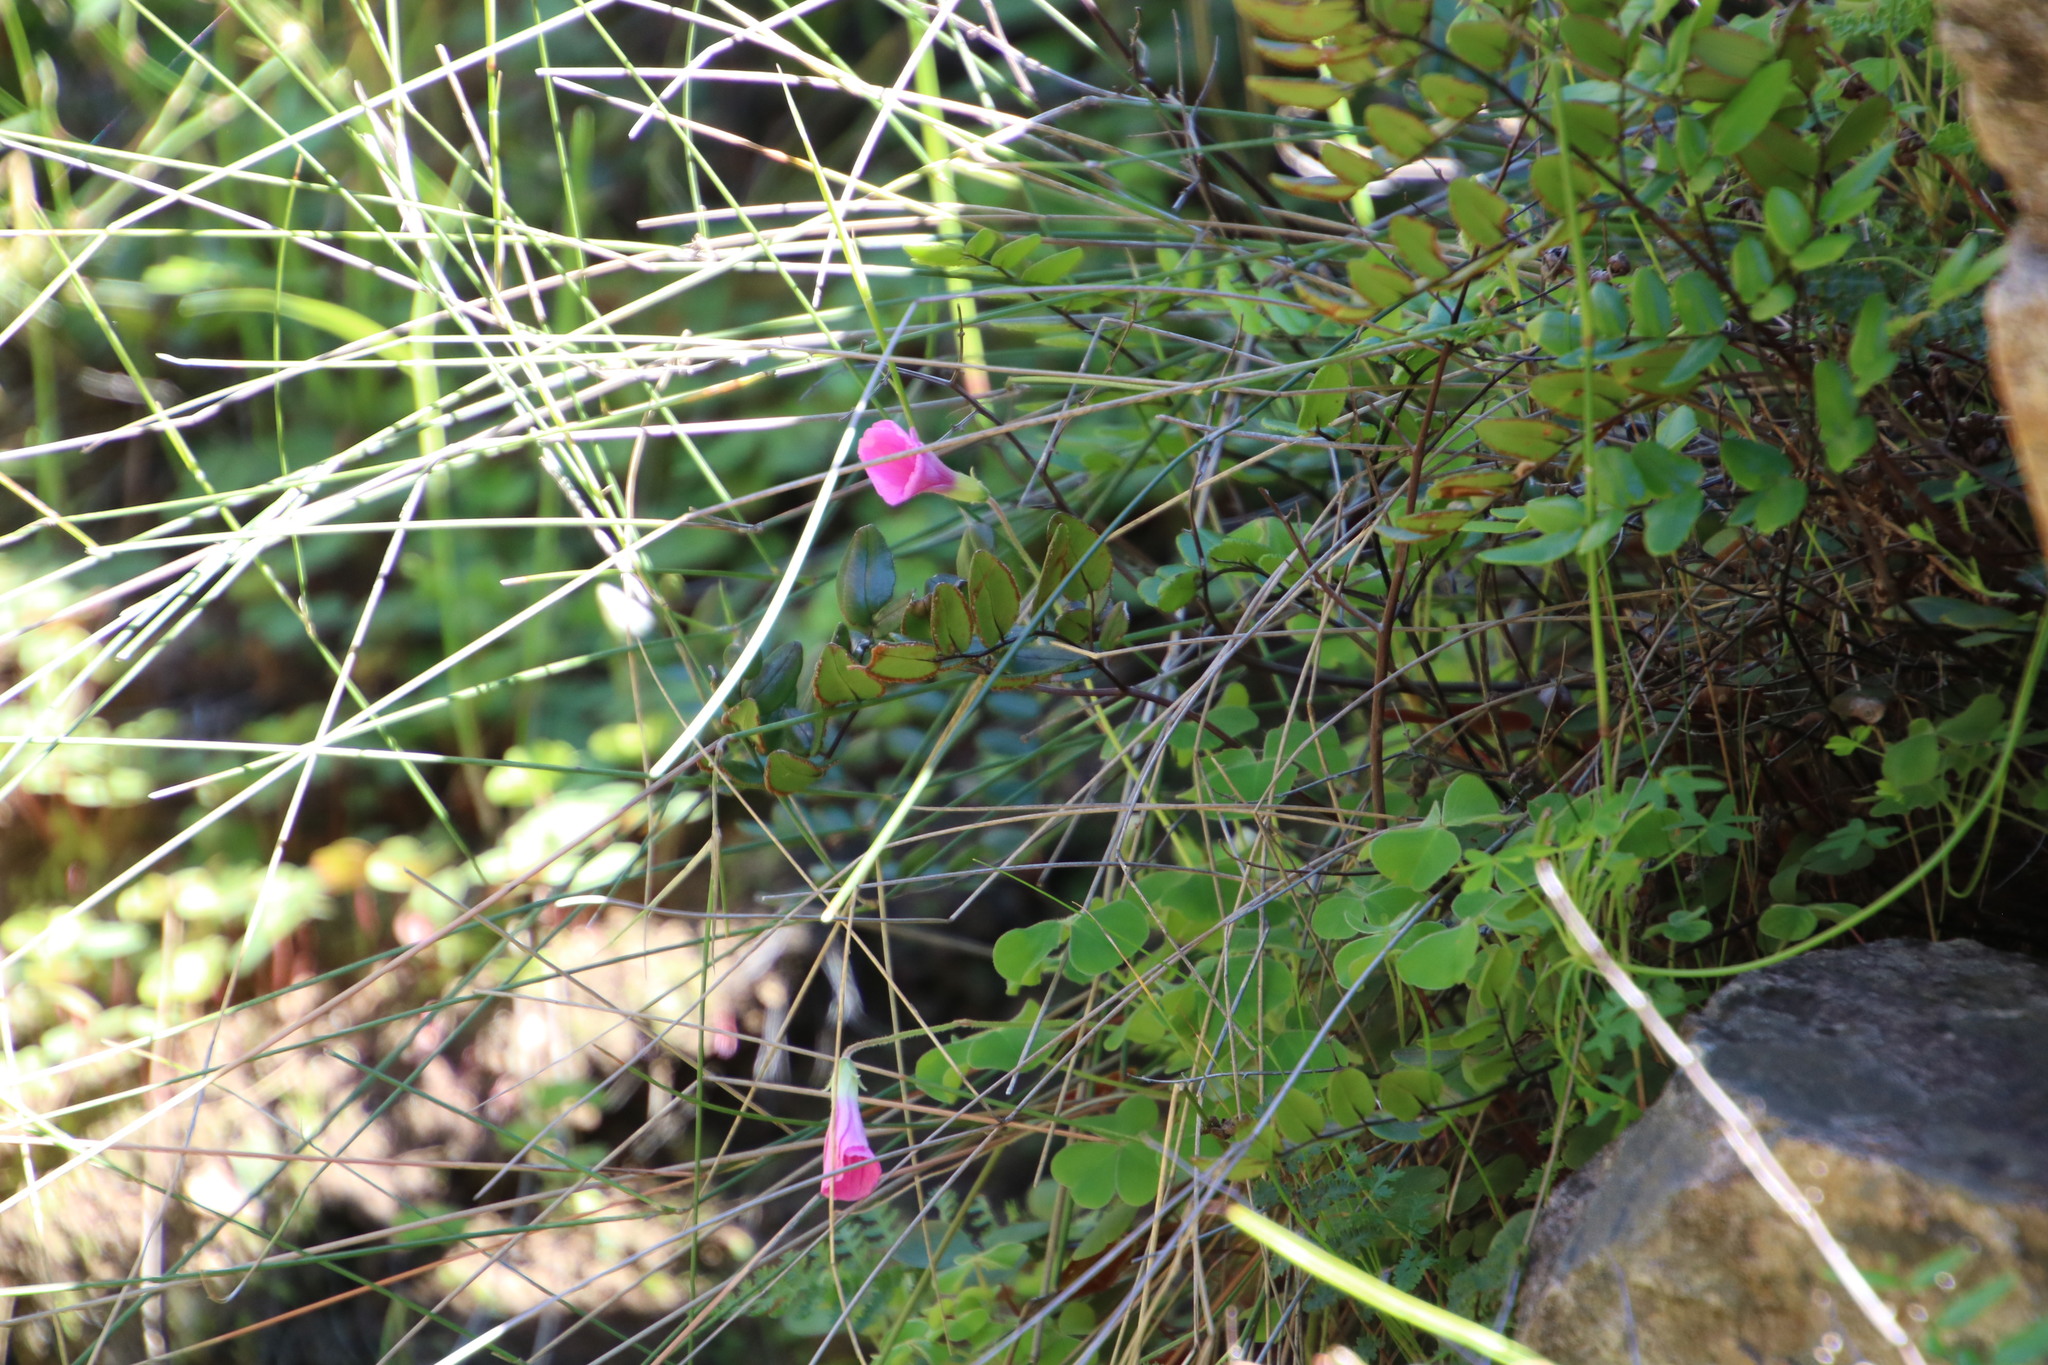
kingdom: Plantae
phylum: Tracheophyta
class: Magnoliopsida
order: Oxalidales
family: Oxalidaceae
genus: Oxalis
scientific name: Oxalis lanata
